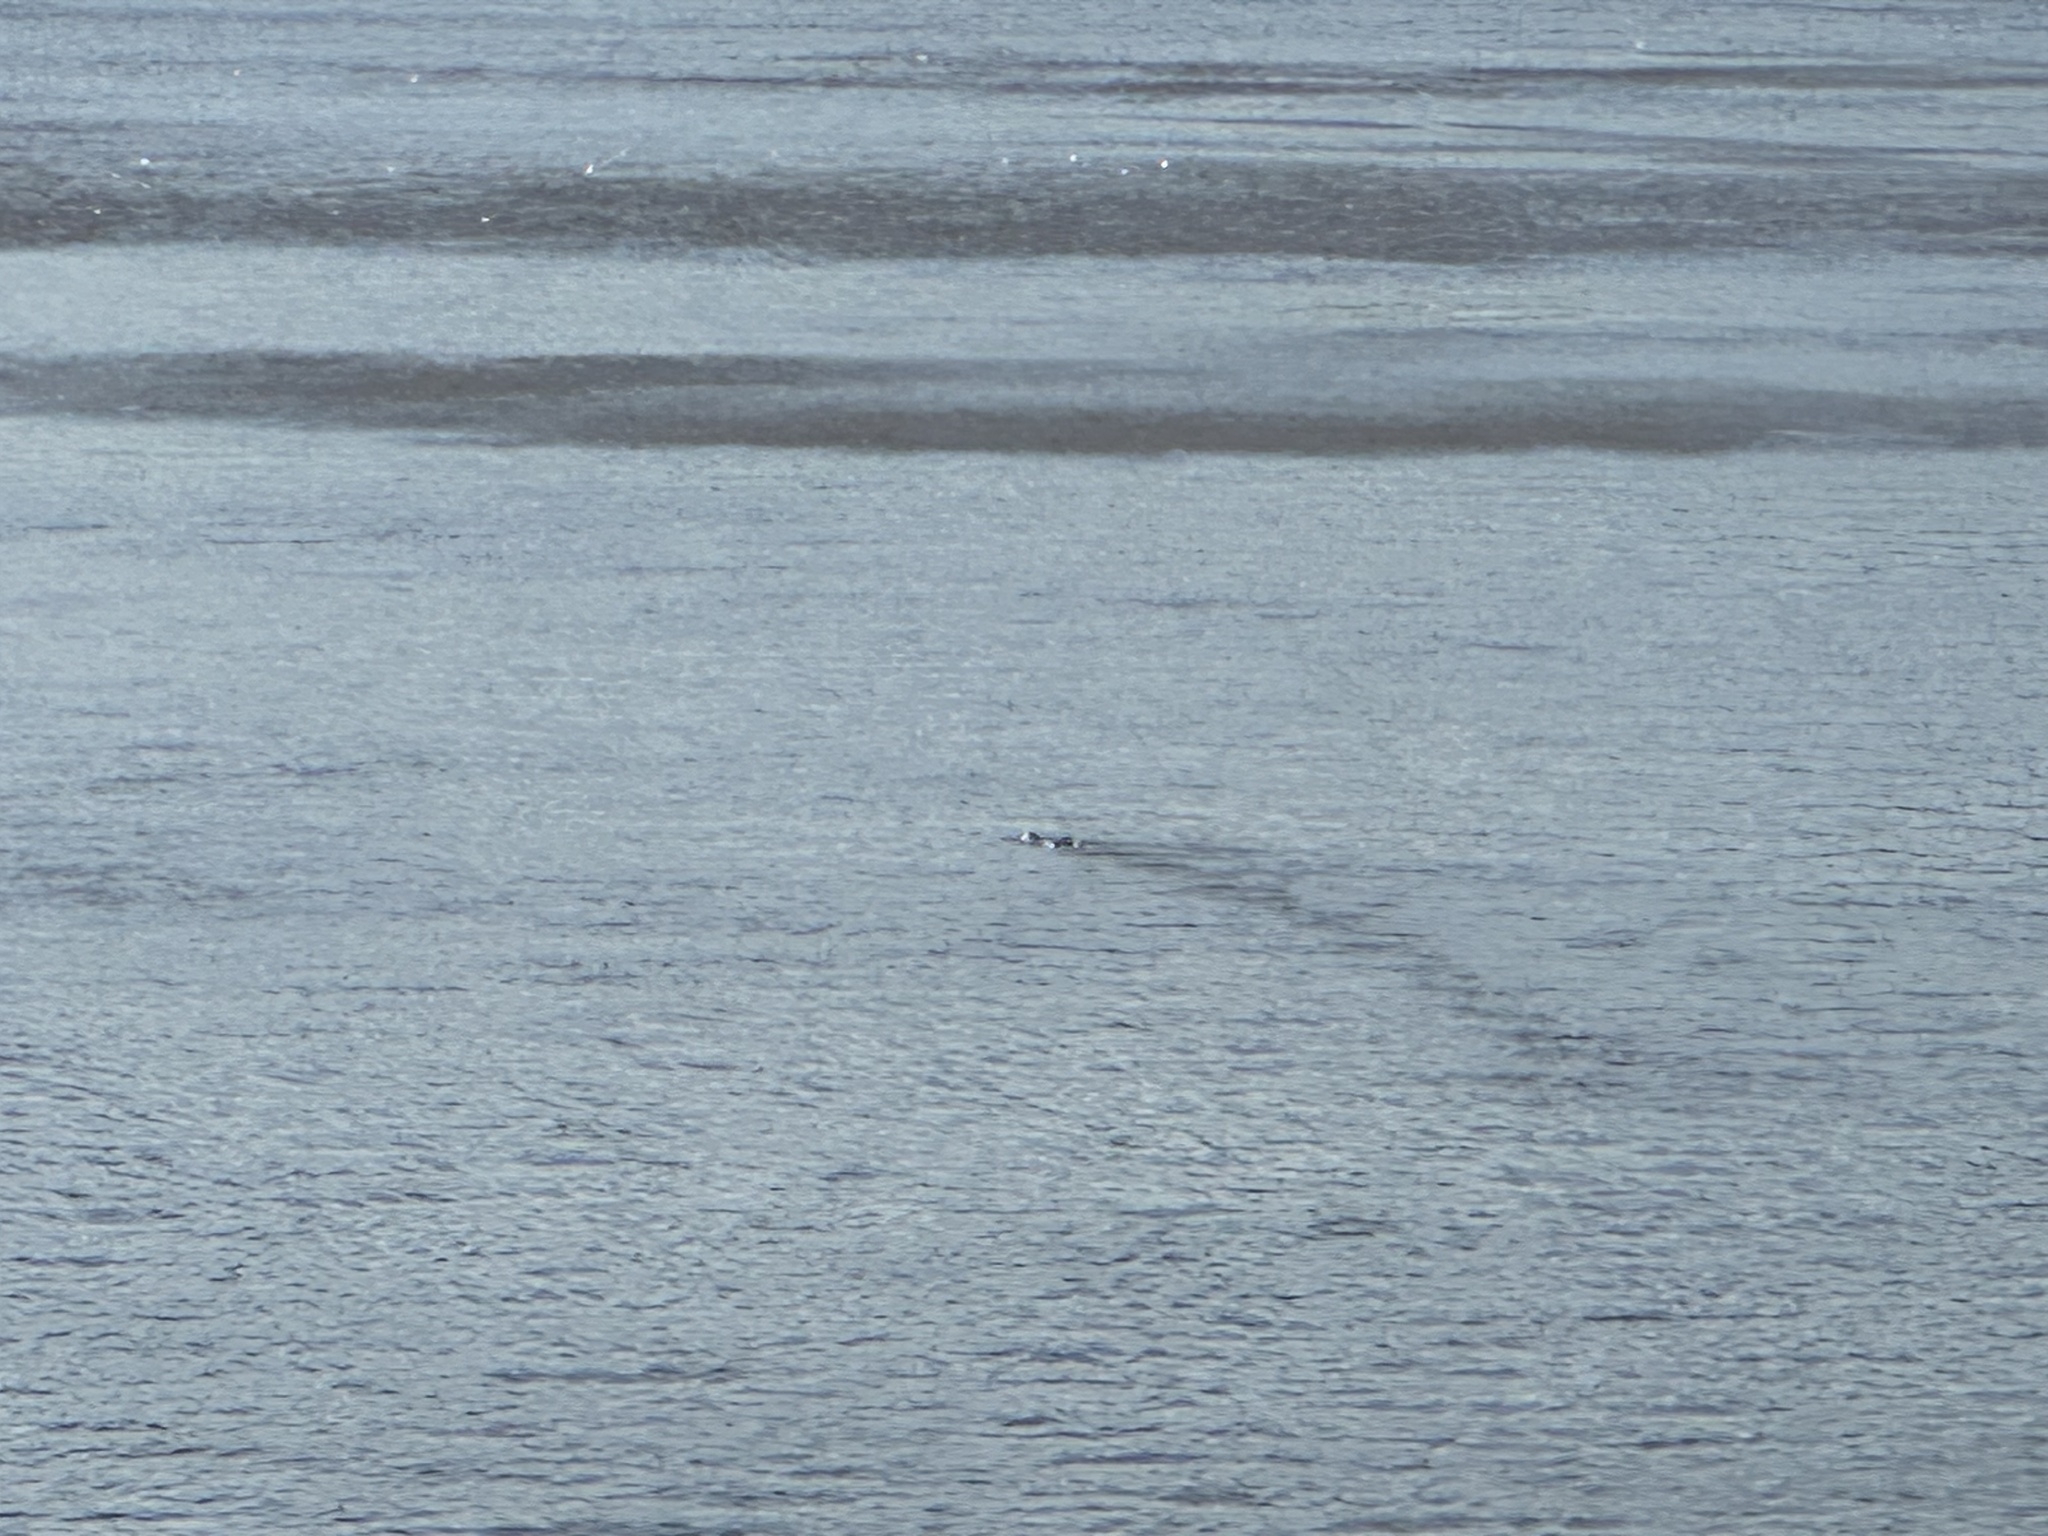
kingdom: Animalia
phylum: Chordata
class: Crocodylia
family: Crocodylidae
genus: Crocodylus
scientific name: Crocodylus acutus
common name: American crocodile
